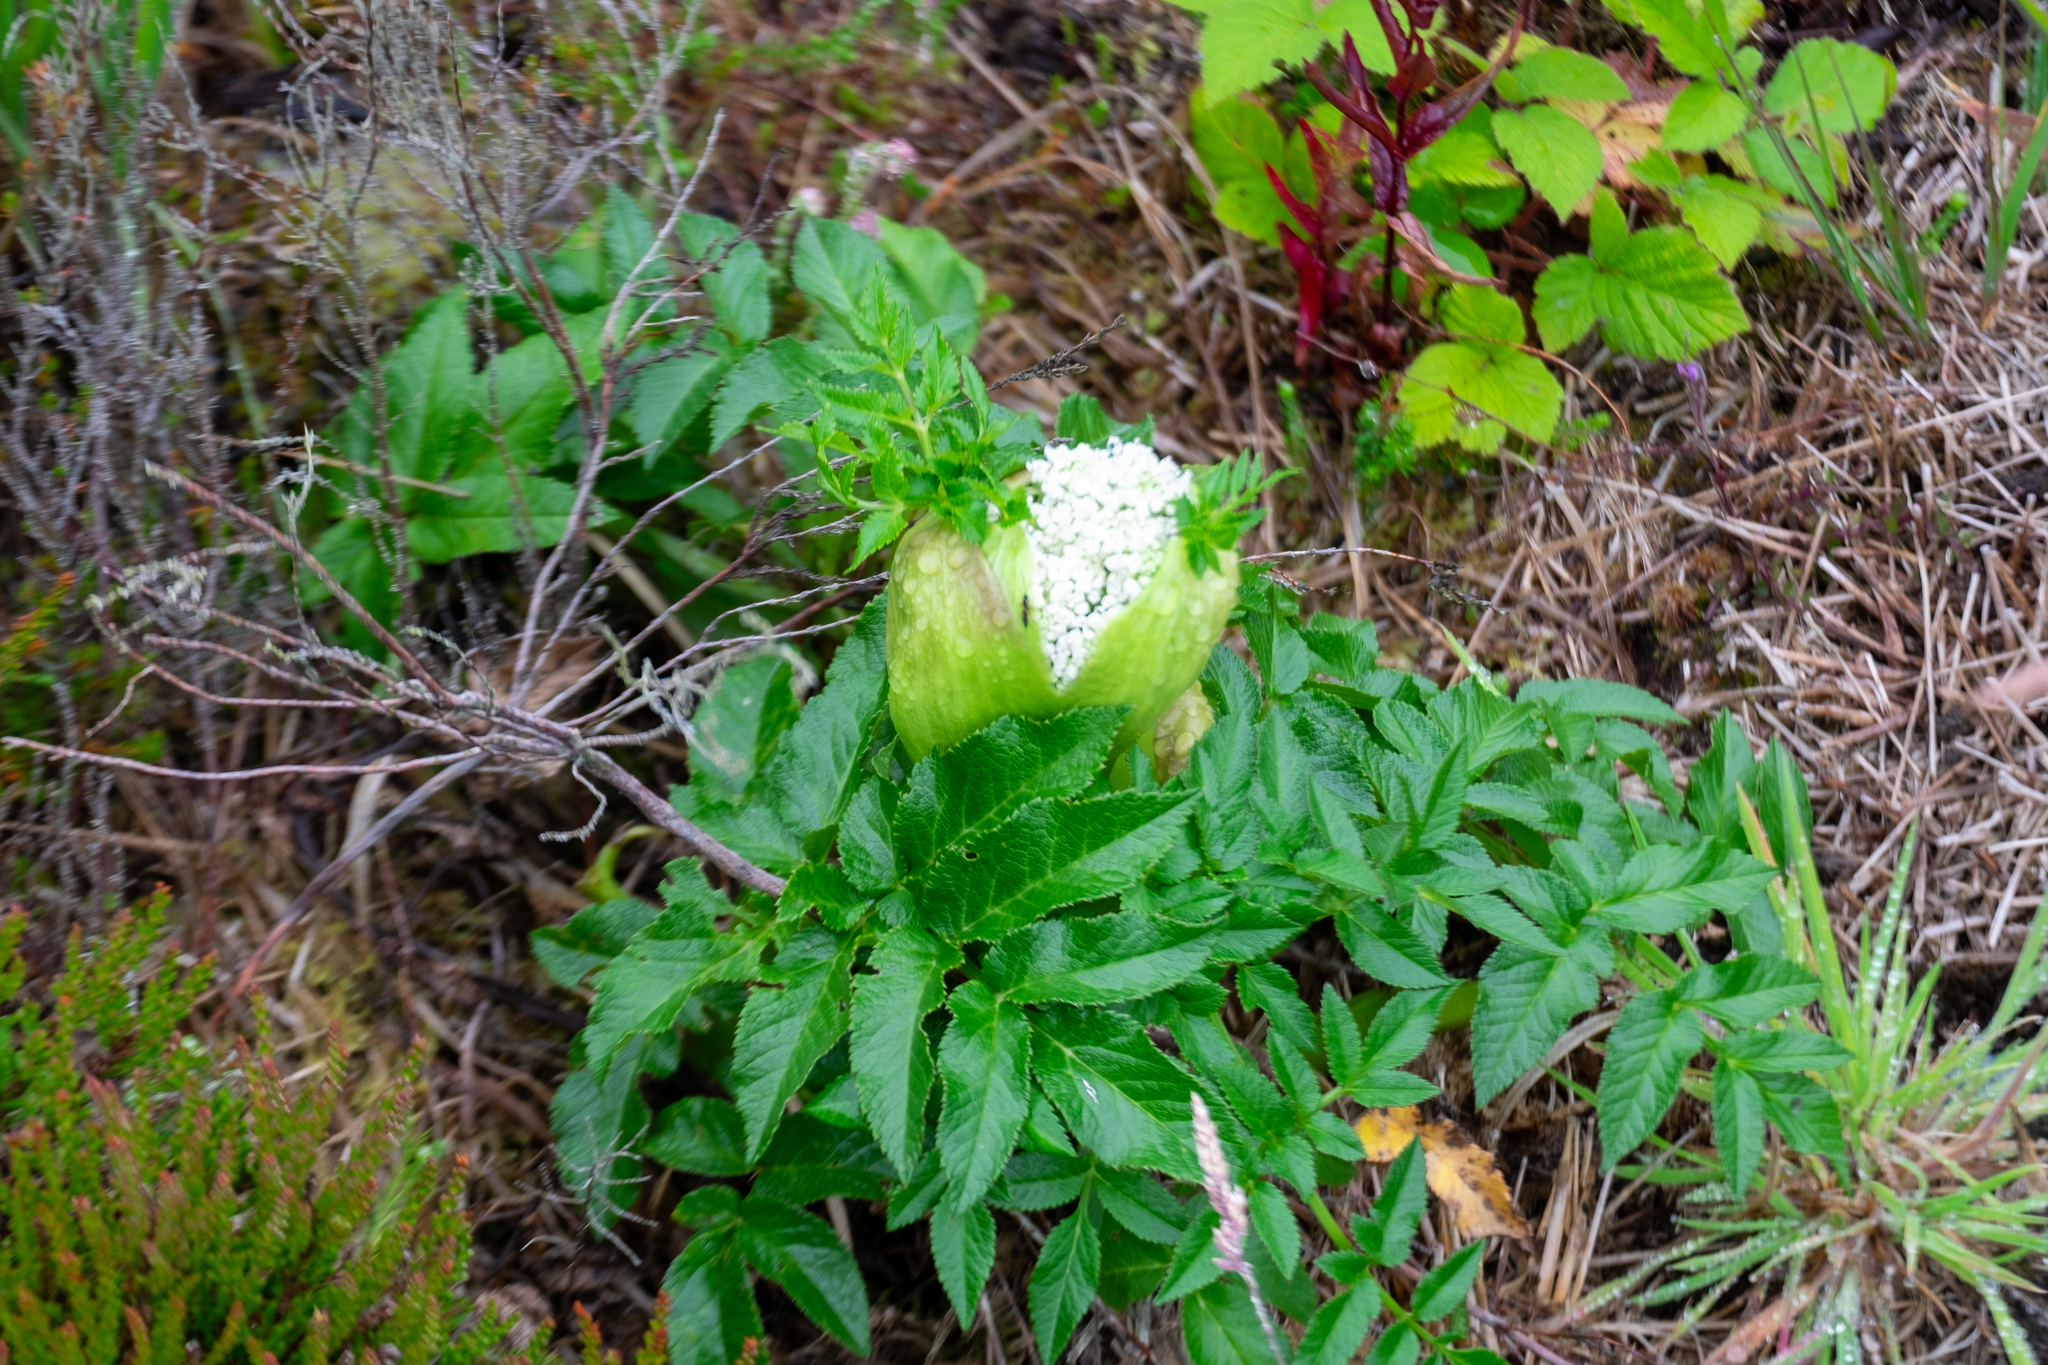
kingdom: Plantae
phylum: Tracheophyta
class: Magnoliopsida
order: Apiales
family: Apiaceae
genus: Angelica
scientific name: Angelica sylvestris
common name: Wild angelica
